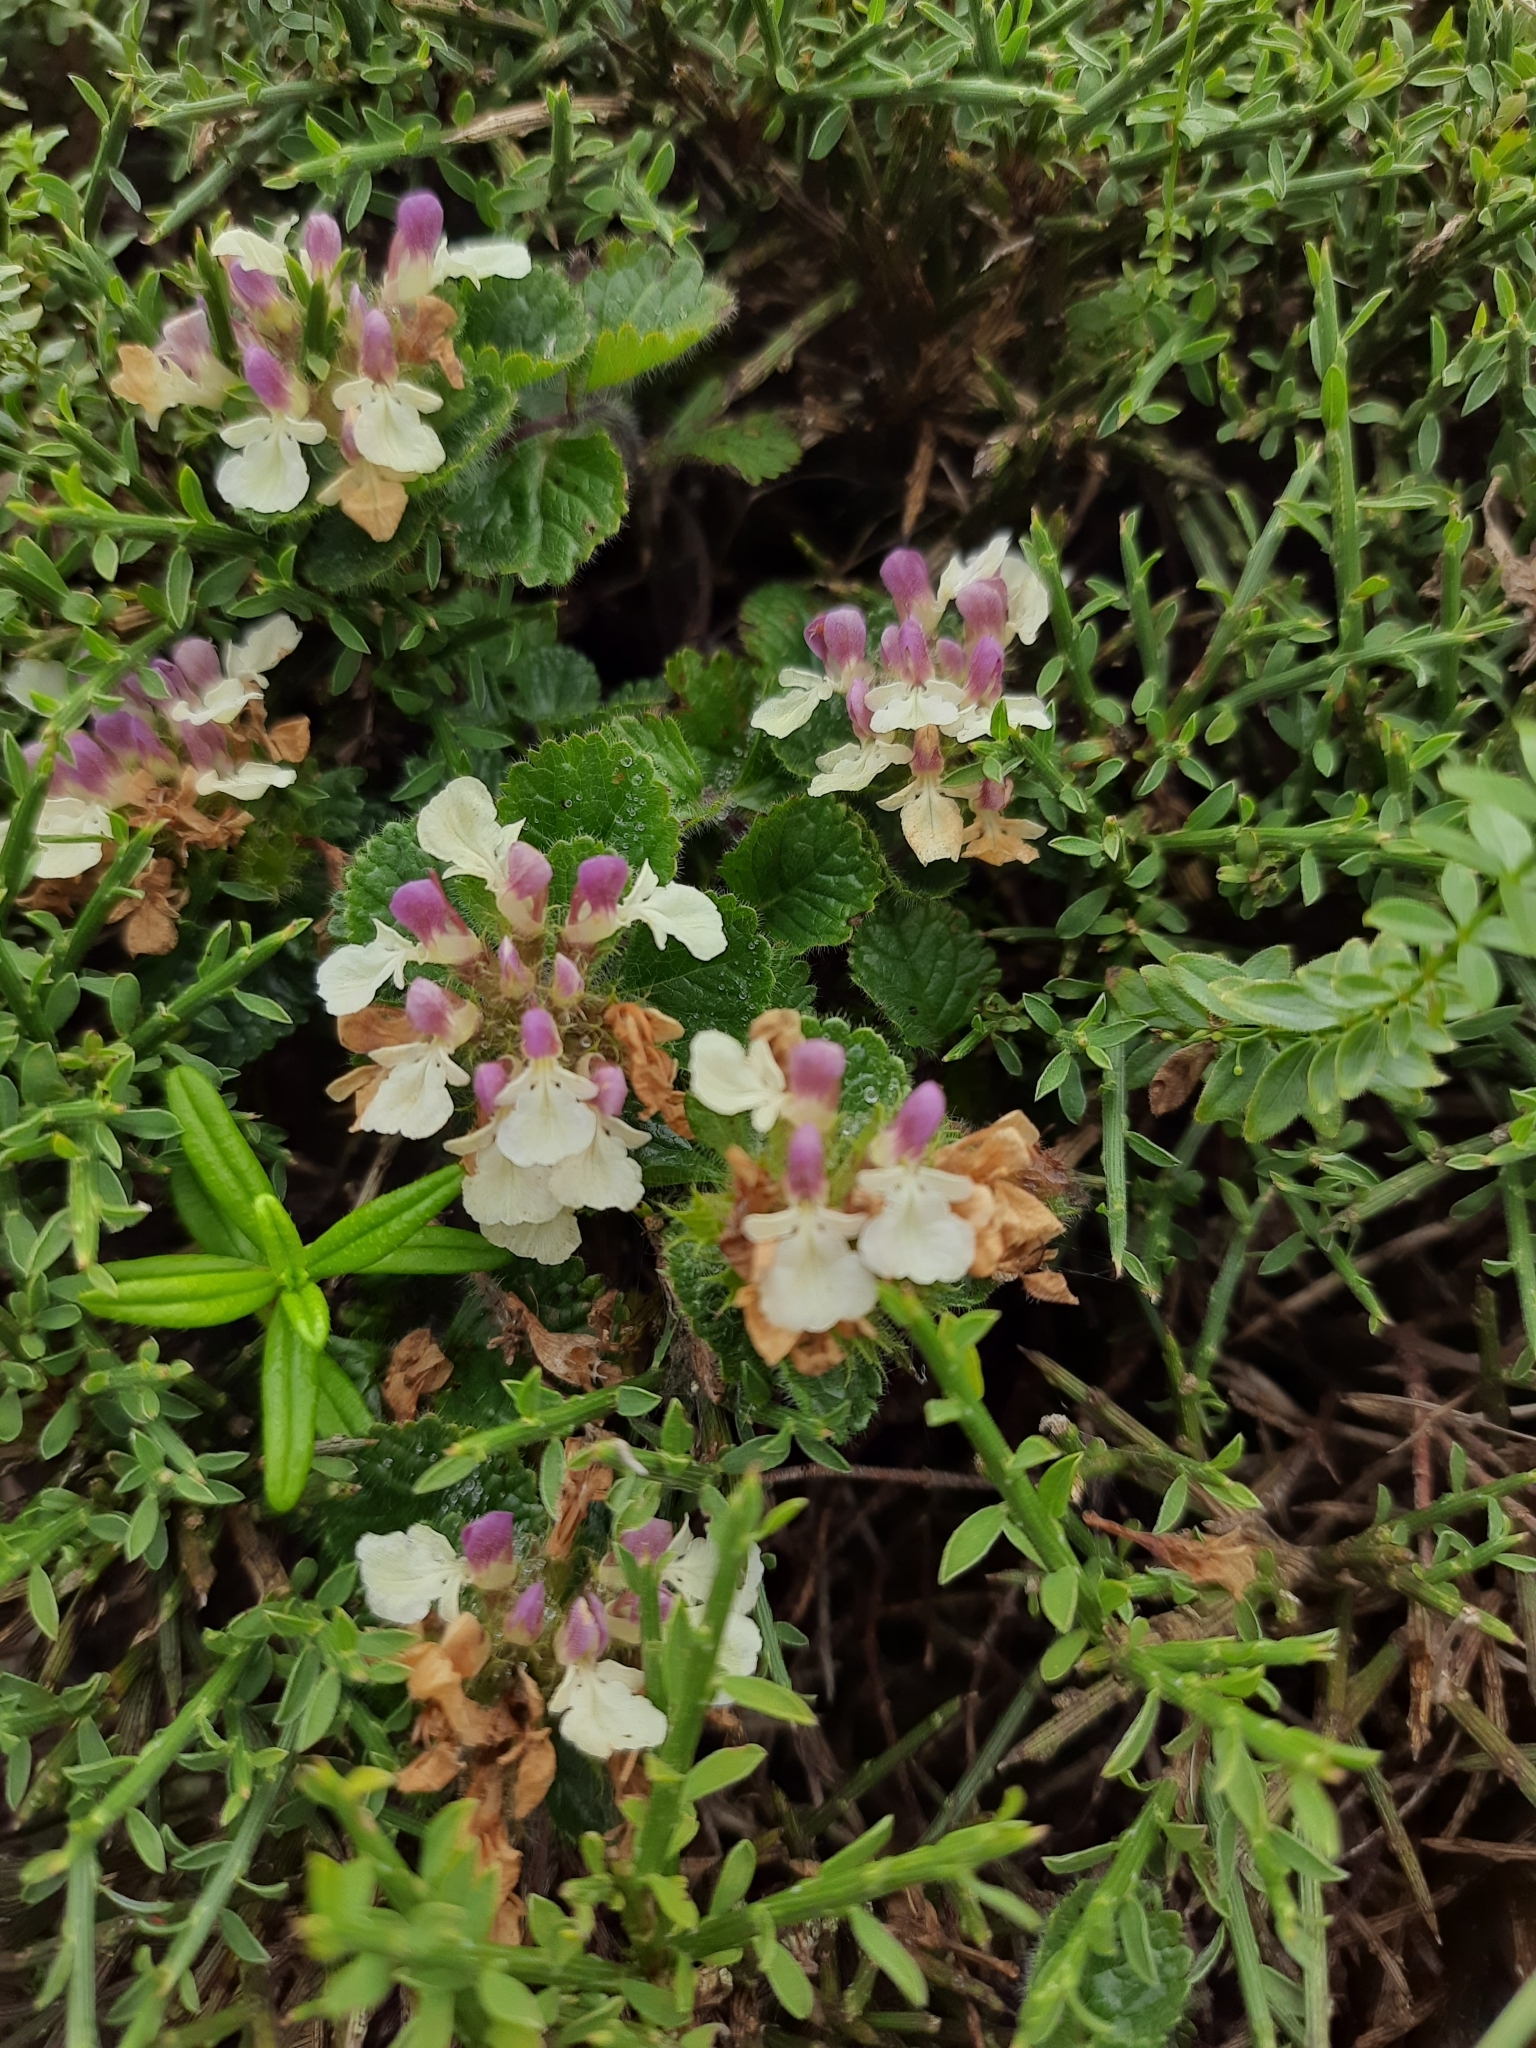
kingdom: Plantae
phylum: Tracheophyta
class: Magnoliopsida
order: Lamiales
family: Lamiaceae
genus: Teucrium
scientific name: Teucrium pyrenaicum
